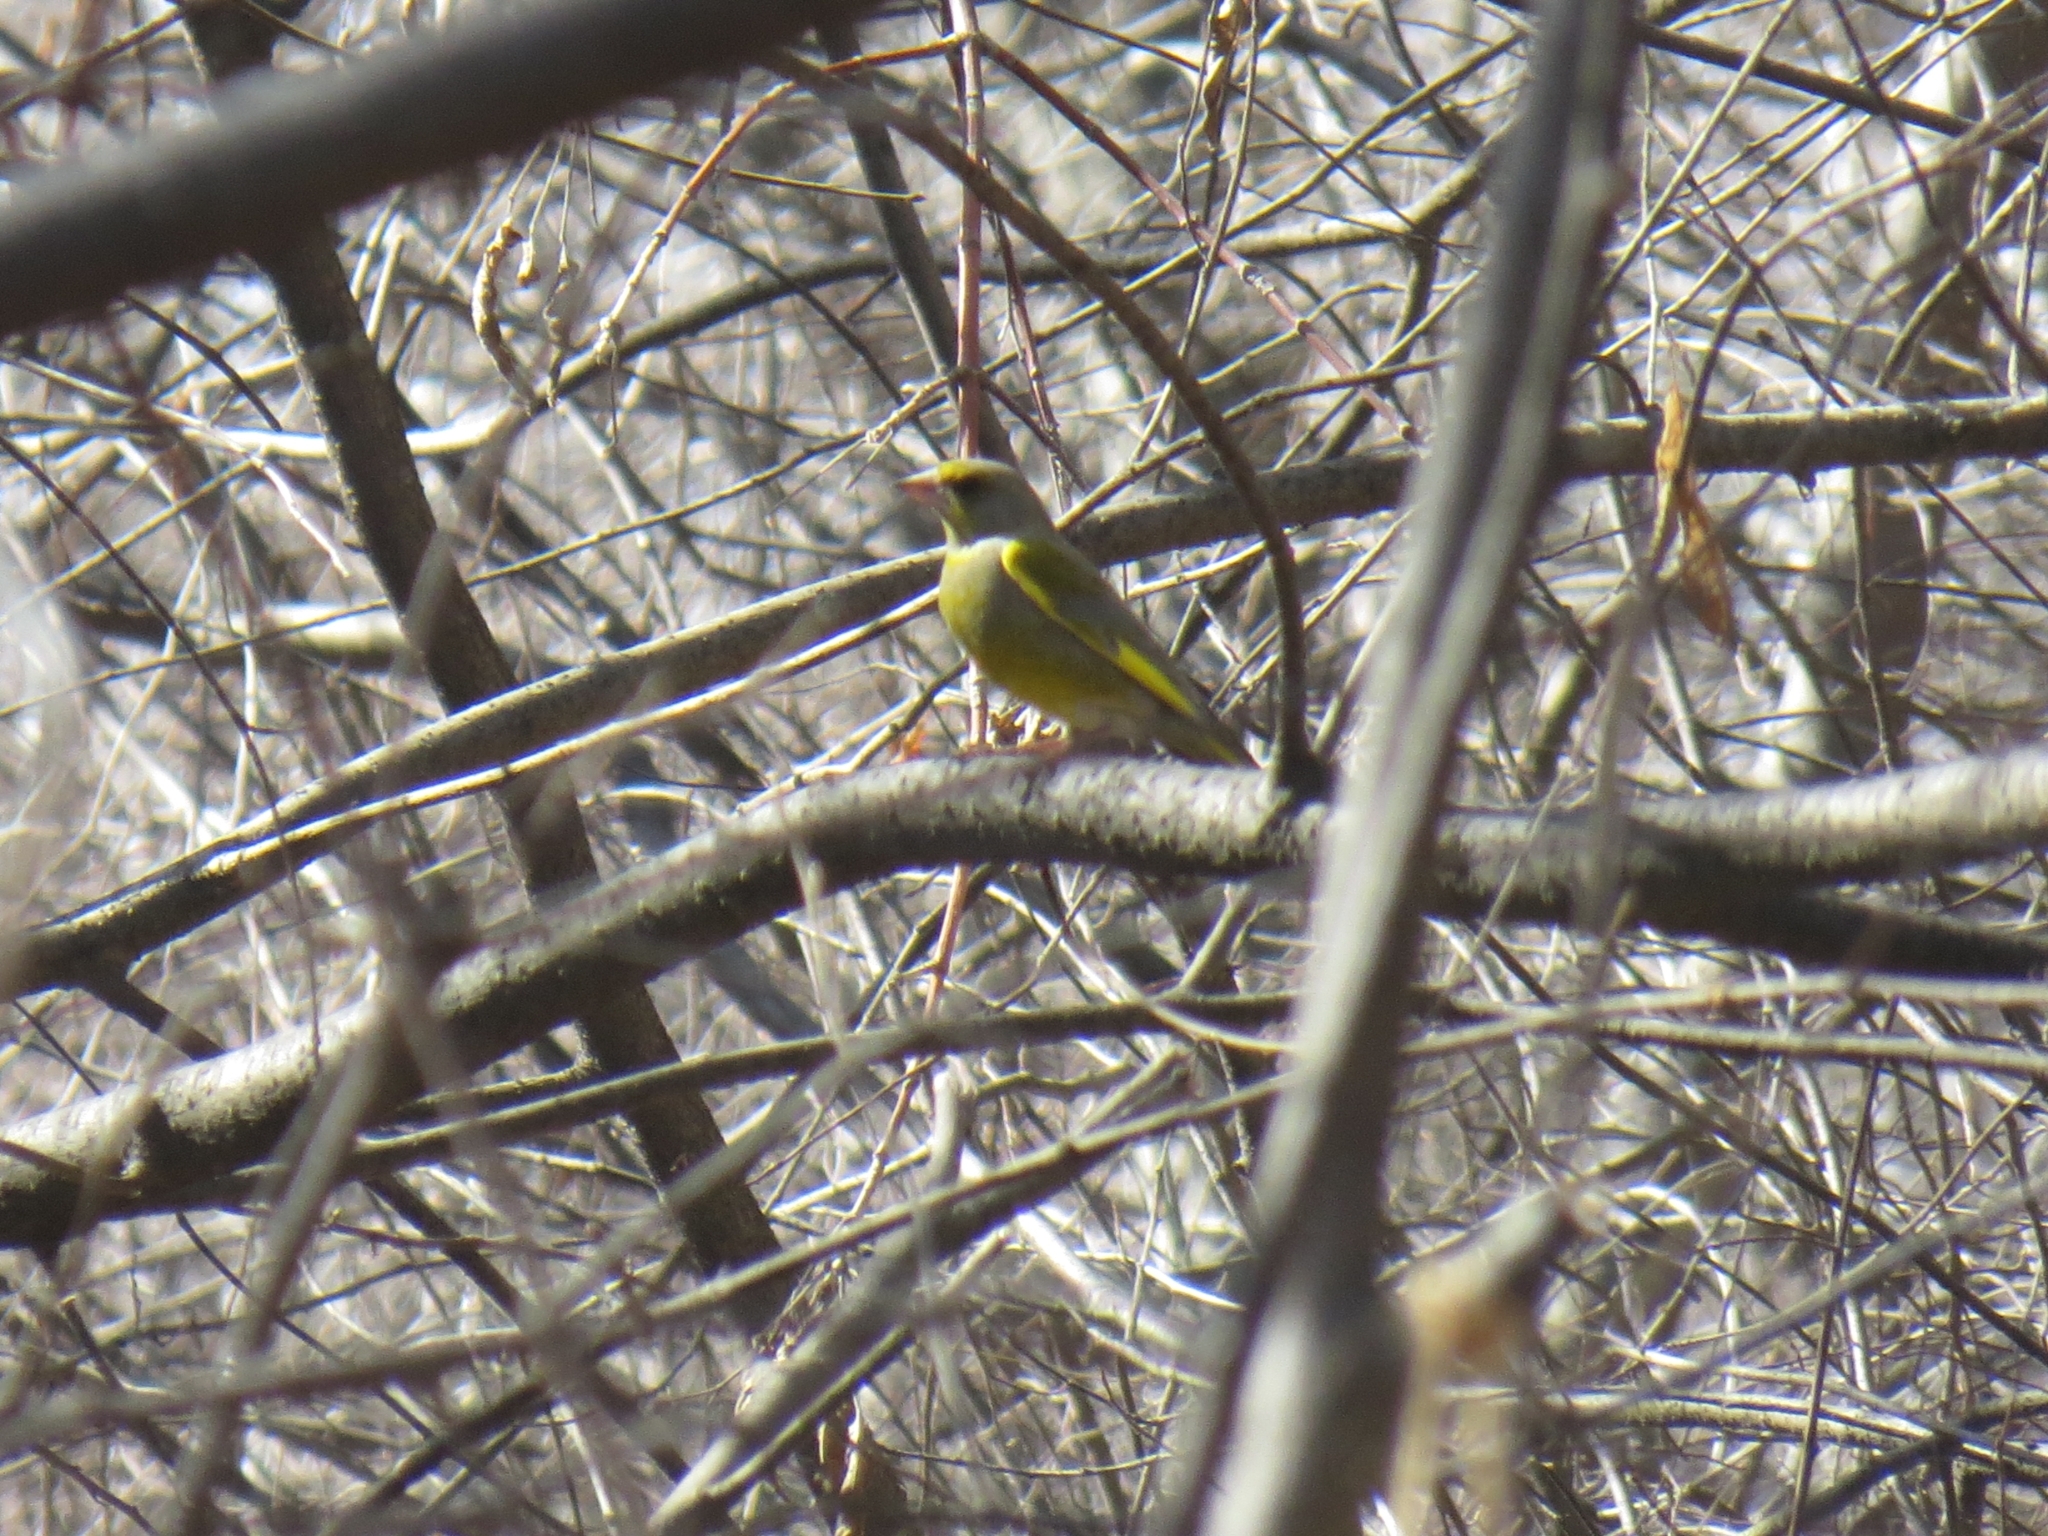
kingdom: Plantae
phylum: Tracheophyta
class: Liliopsida
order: Poales
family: Poaceae
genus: Chloris
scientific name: Chloris chloris
